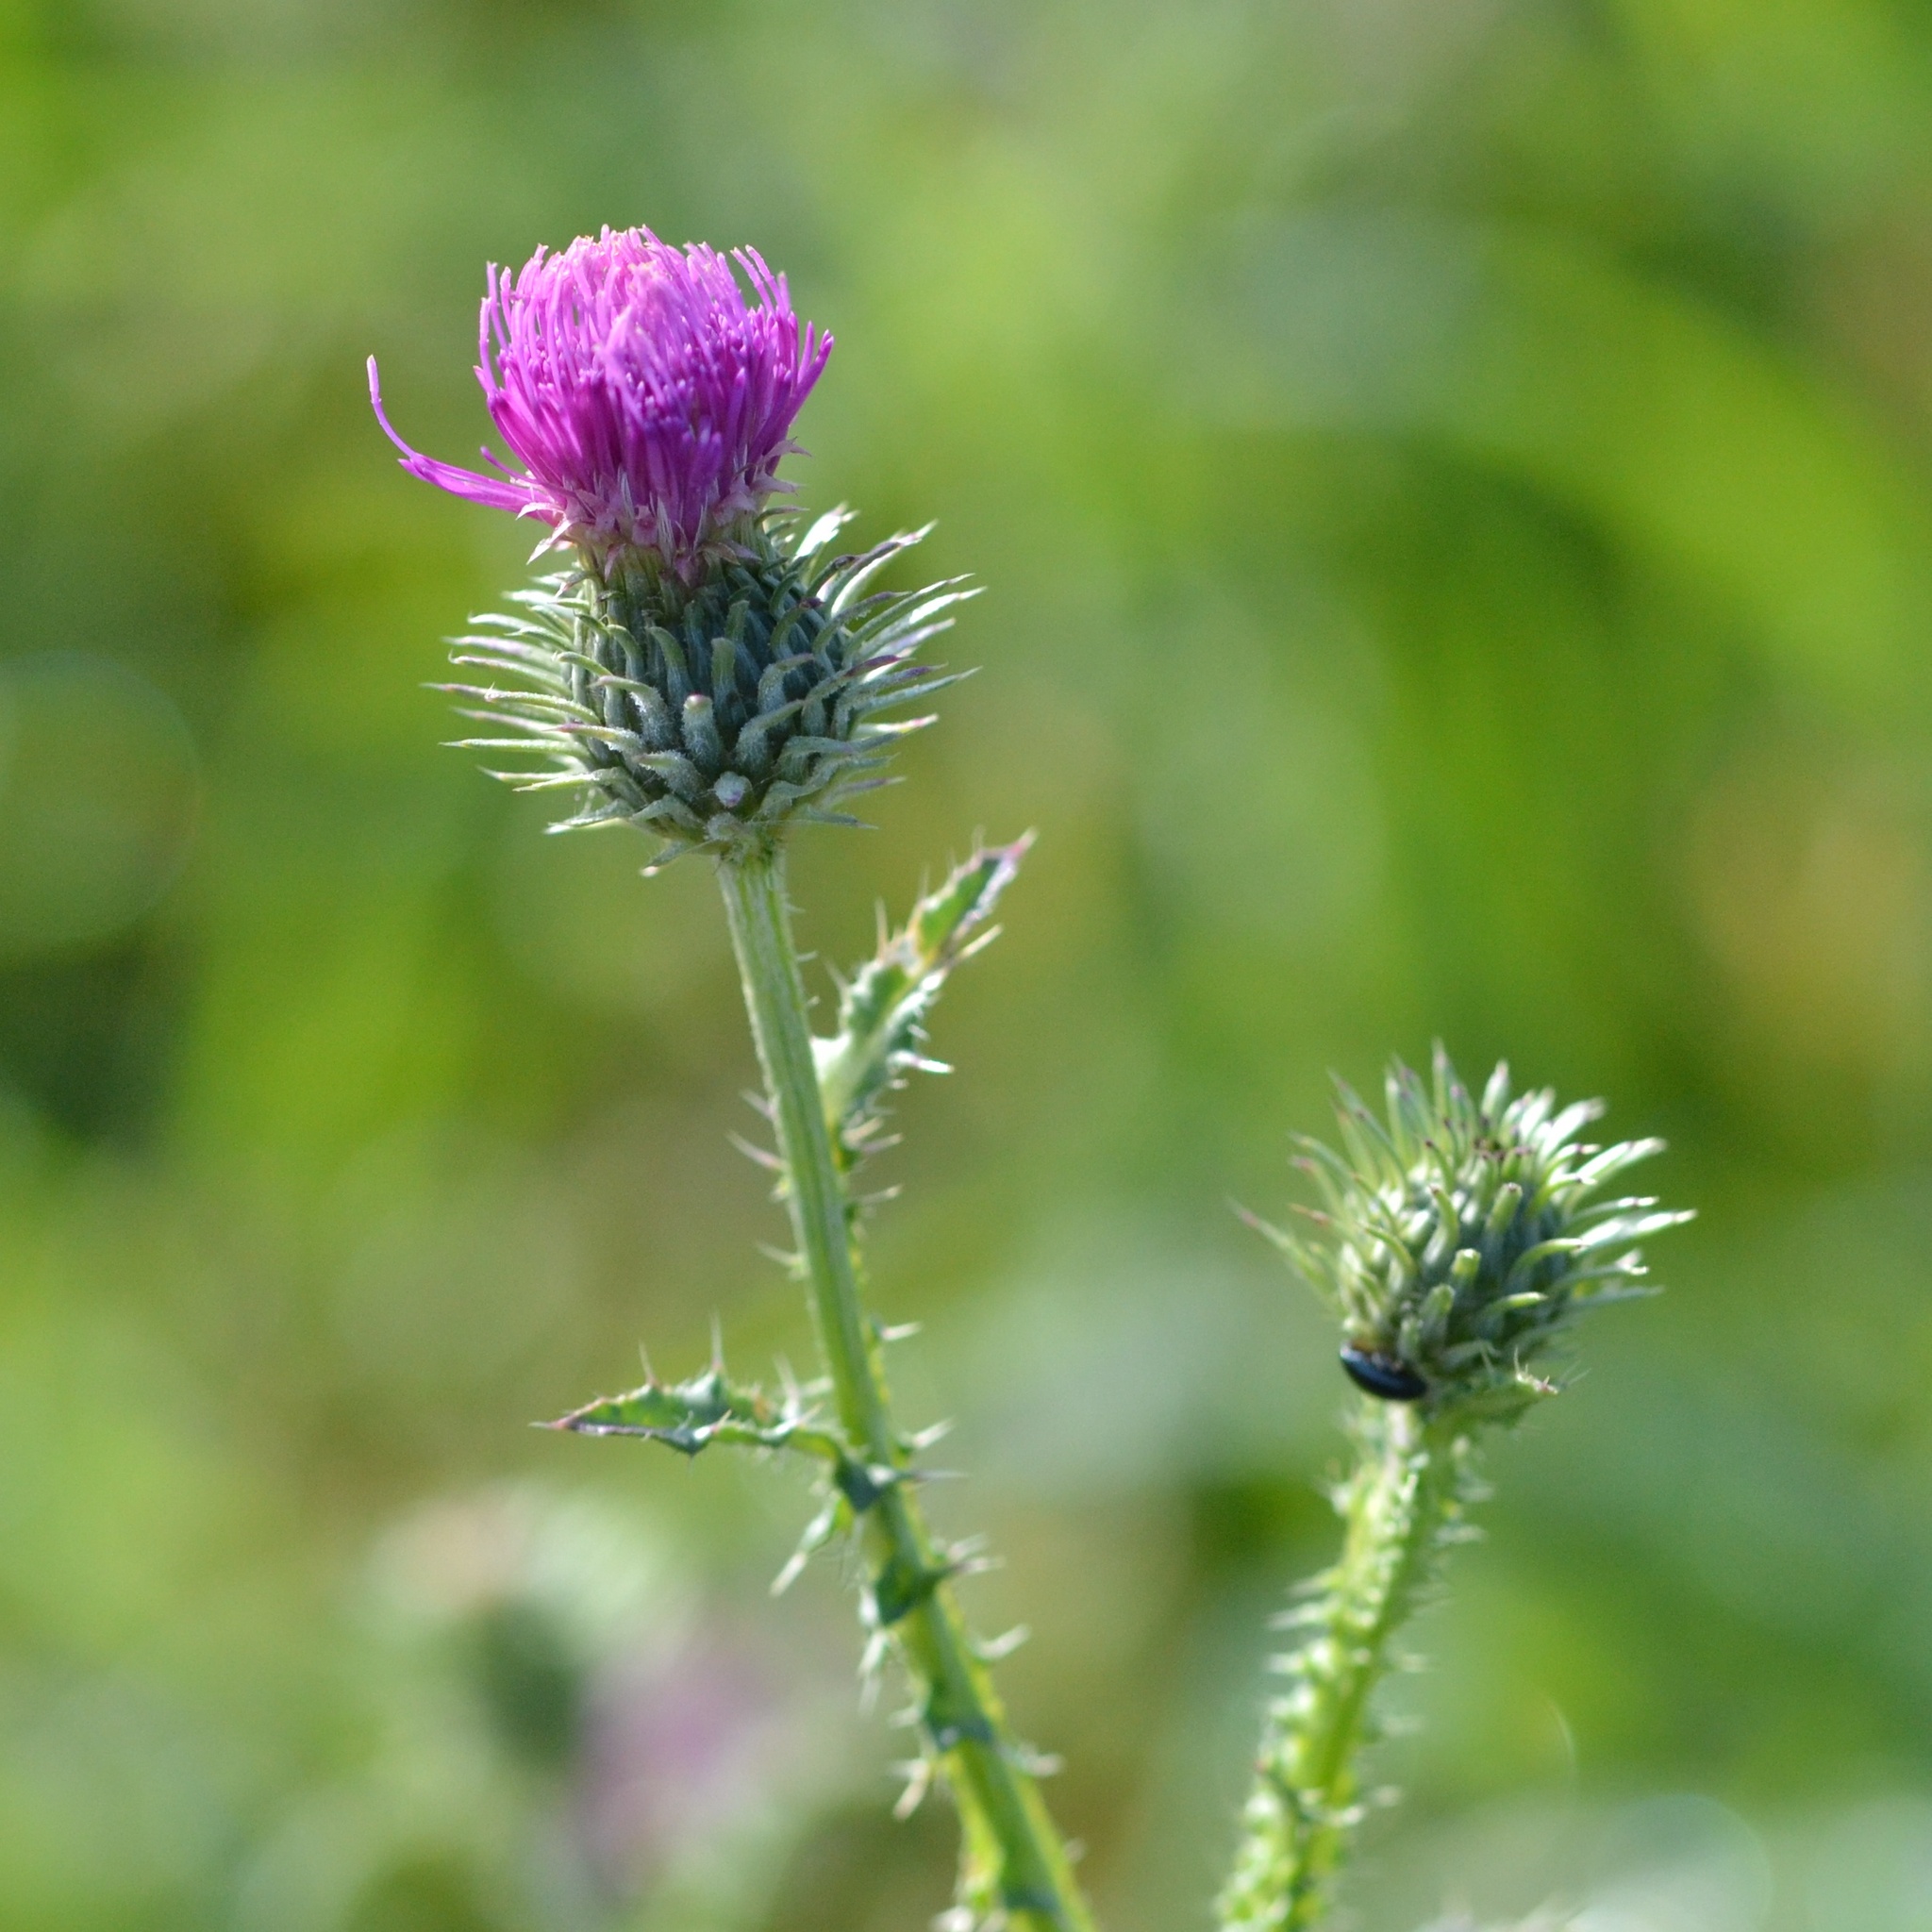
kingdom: Plantae
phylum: Tracheophyta
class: Magnoliopsida
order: Asterales
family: Asteraceae
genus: Carduus
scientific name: Carduus acanthoides
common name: Plumeless thistle
